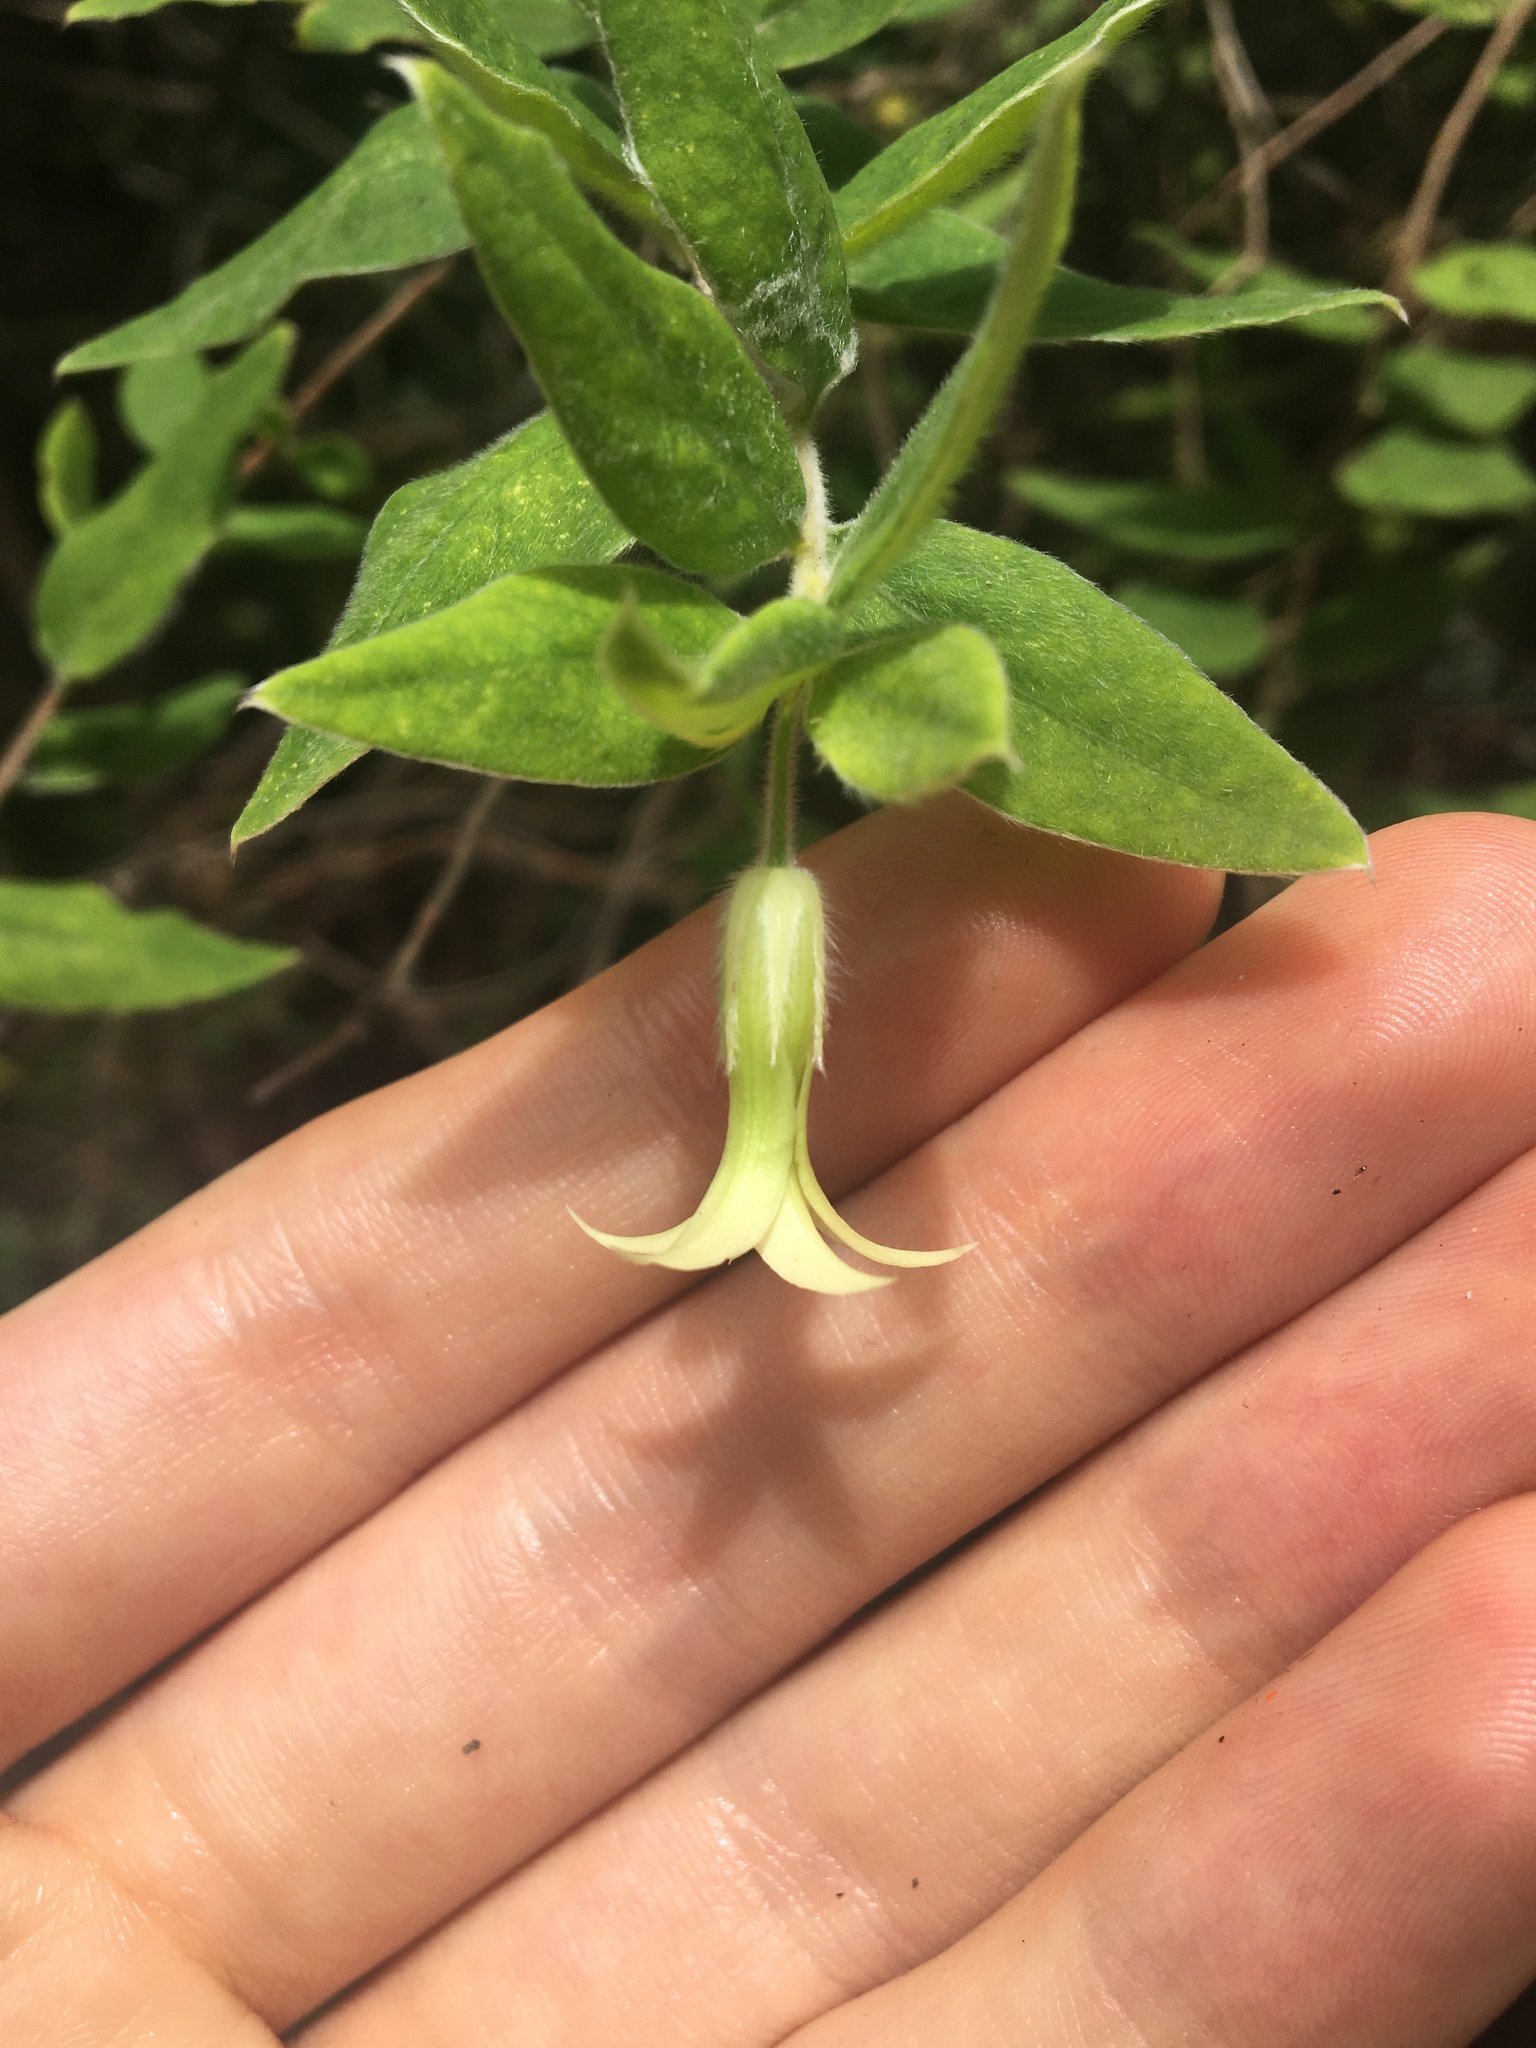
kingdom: Plantae
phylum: Tracheophyta
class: Magnoliopsida
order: Apiales
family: Pittosporaceae
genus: Billardiera
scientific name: Billardiera scandens
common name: Apple-berry
